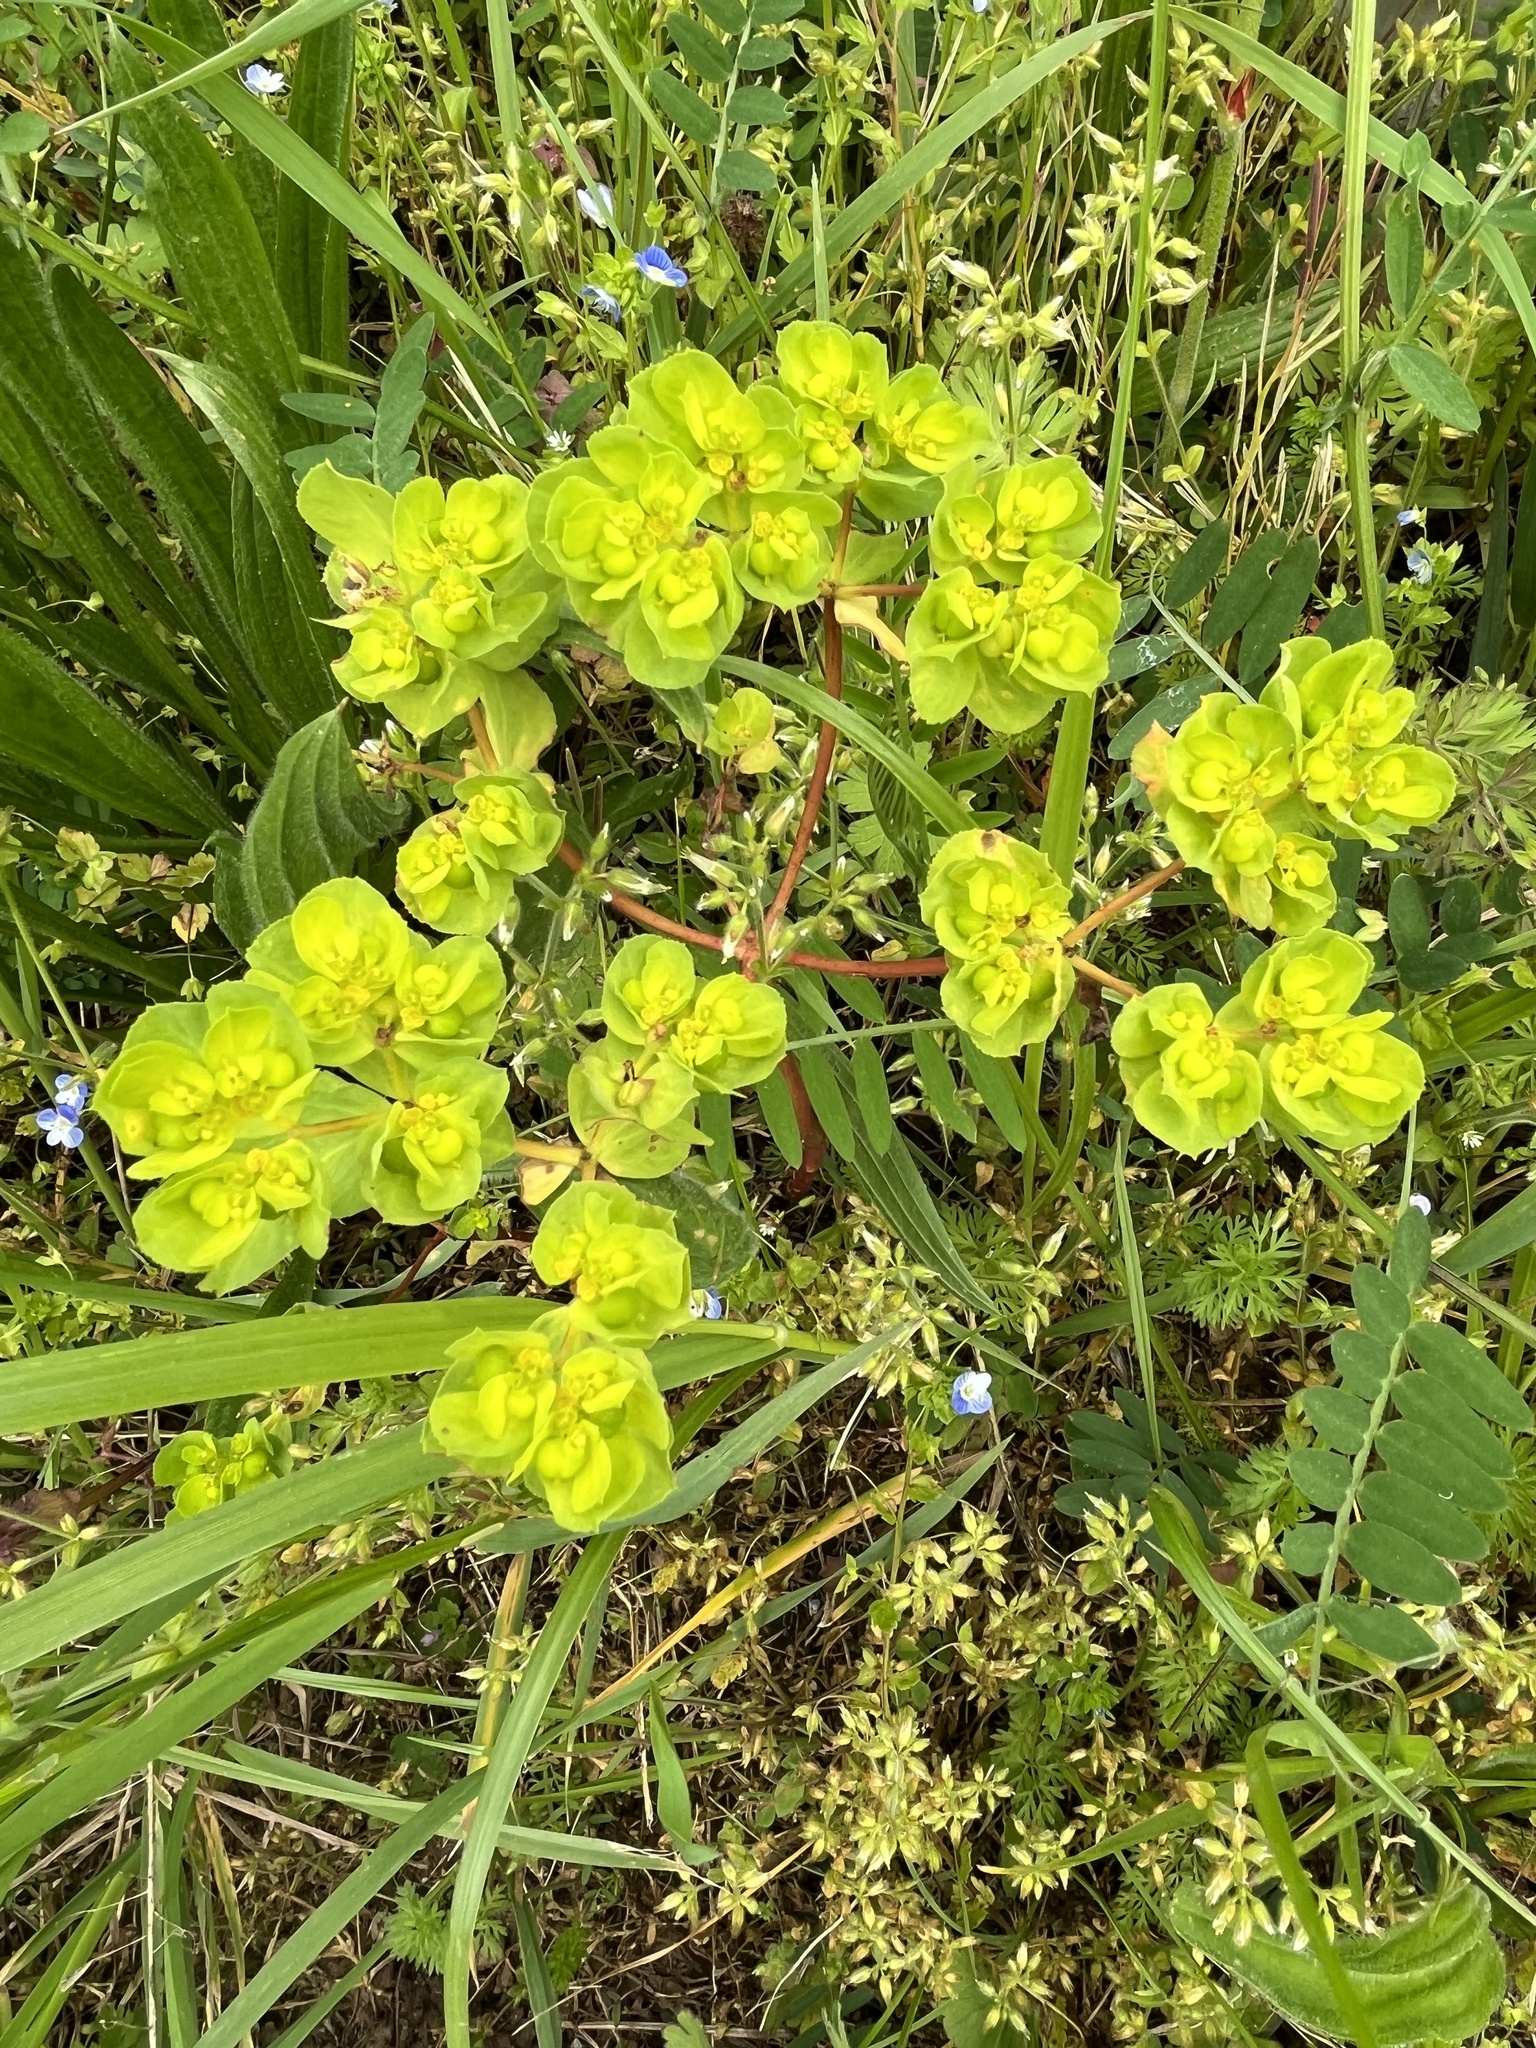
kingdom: Plantae
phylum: Tracheophyta
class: Magnoliopsida
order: Malpighiales
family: Euphorbiaceae
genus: Euphorbia
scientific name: Euphorbia helioscopia
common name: Sun spurge
